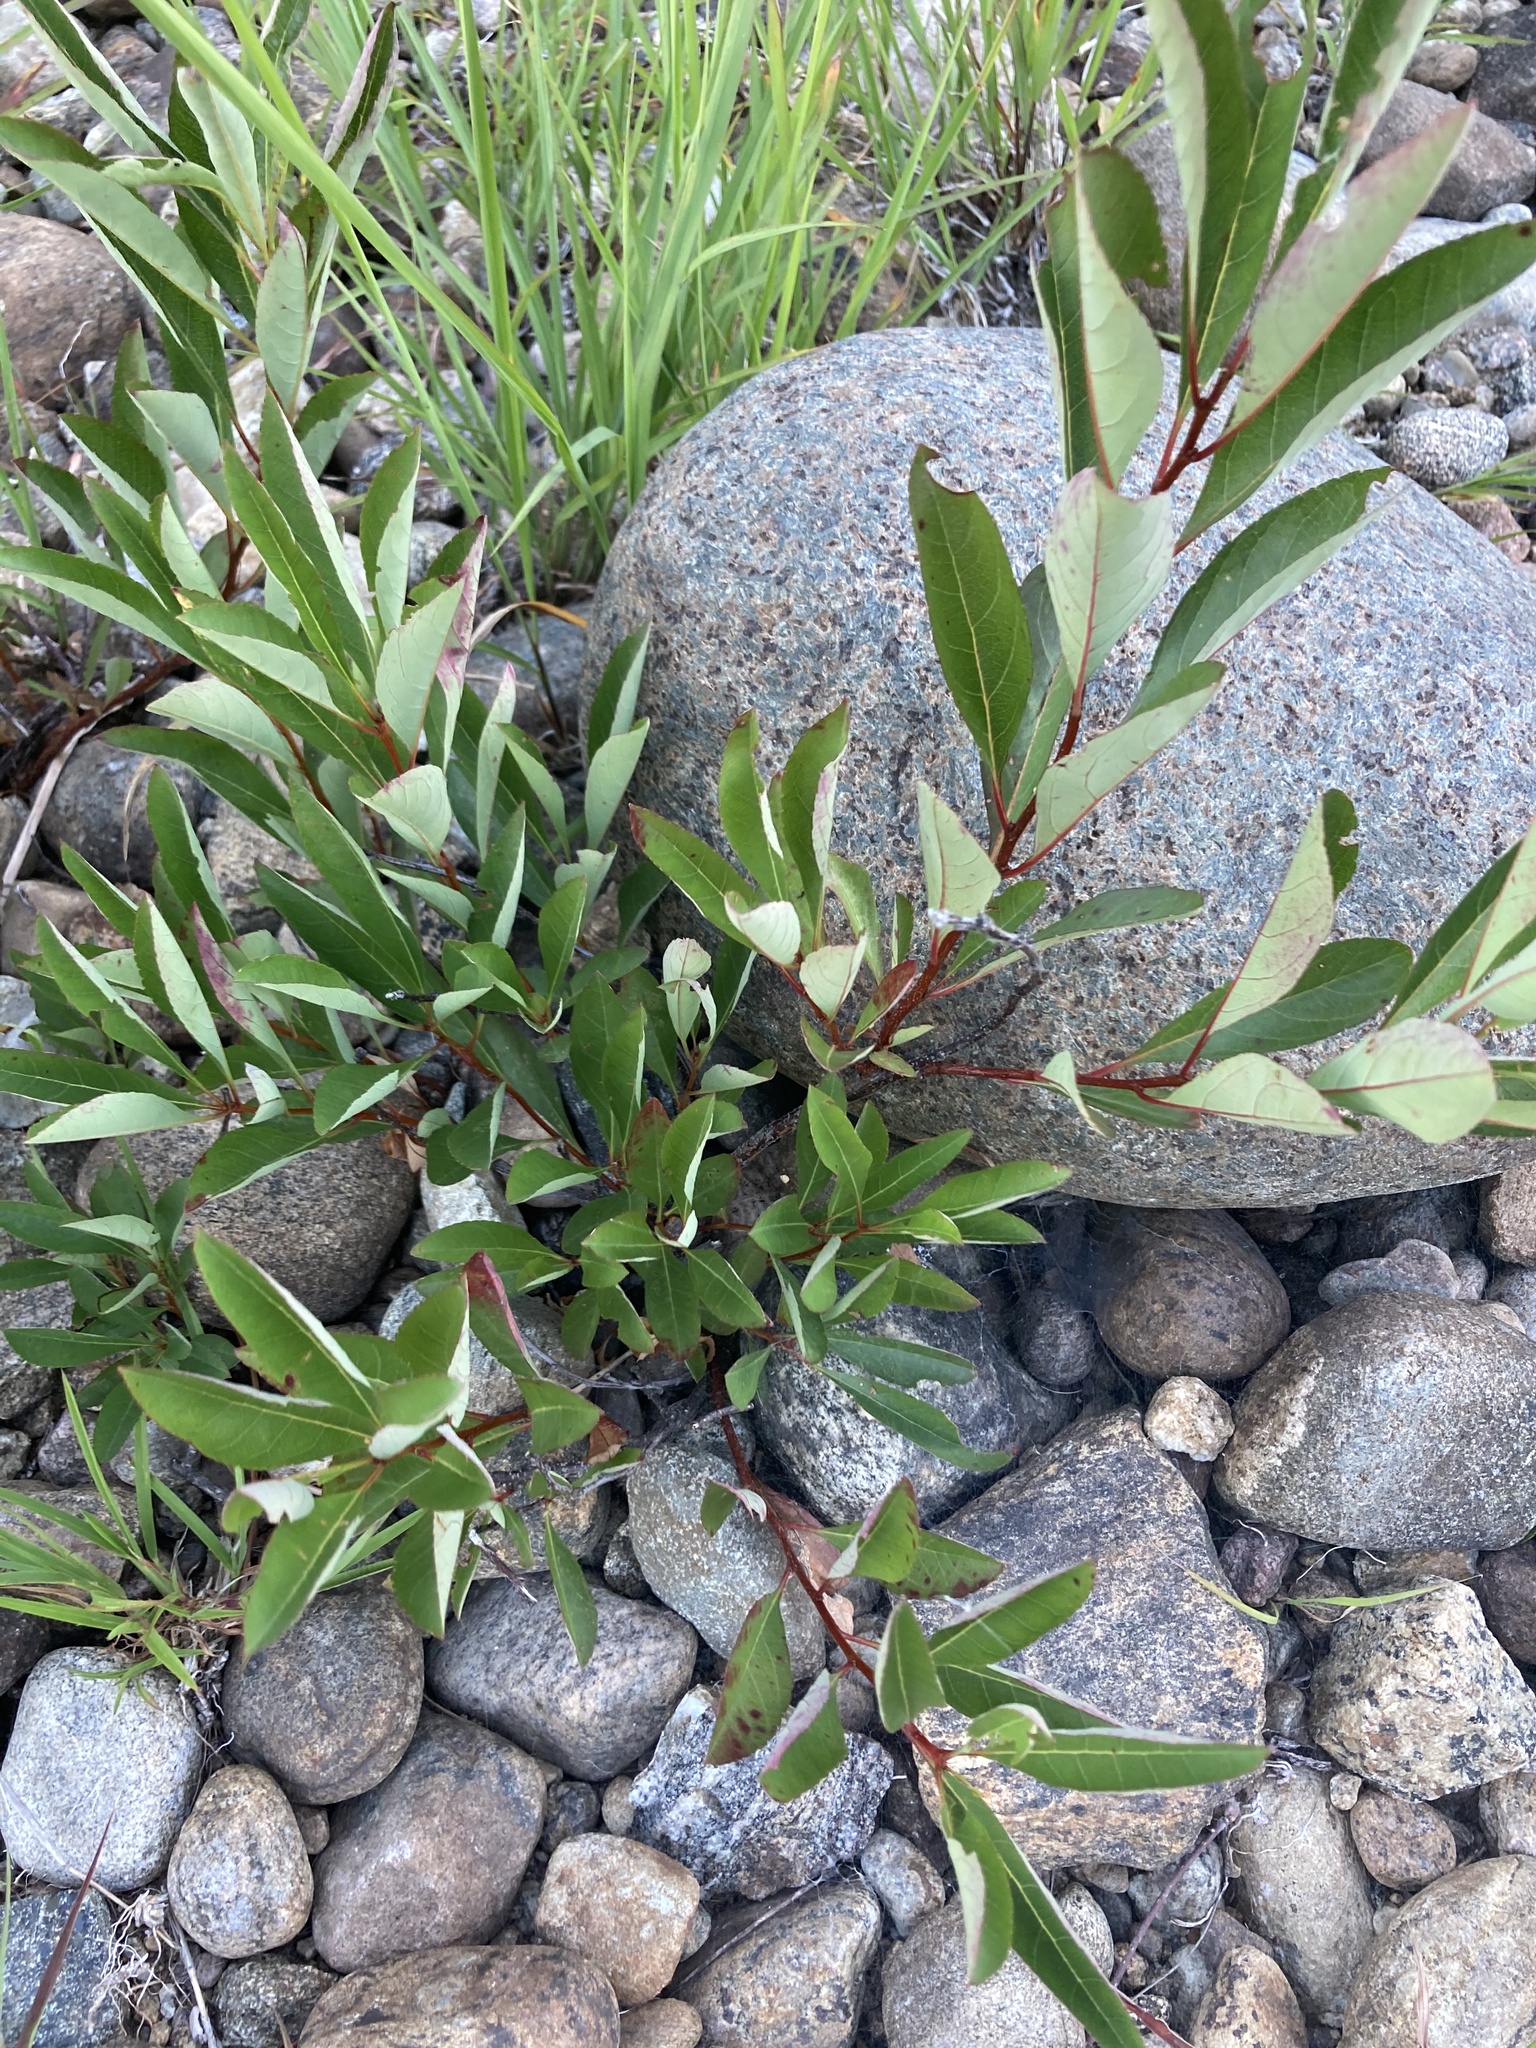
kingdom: Plantae
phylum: Tracheophyta
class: Magnoliopsida
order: Rosales
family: Rosaceae
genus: Prunus
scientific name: Prunus pumila
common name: Dwarf cherry
